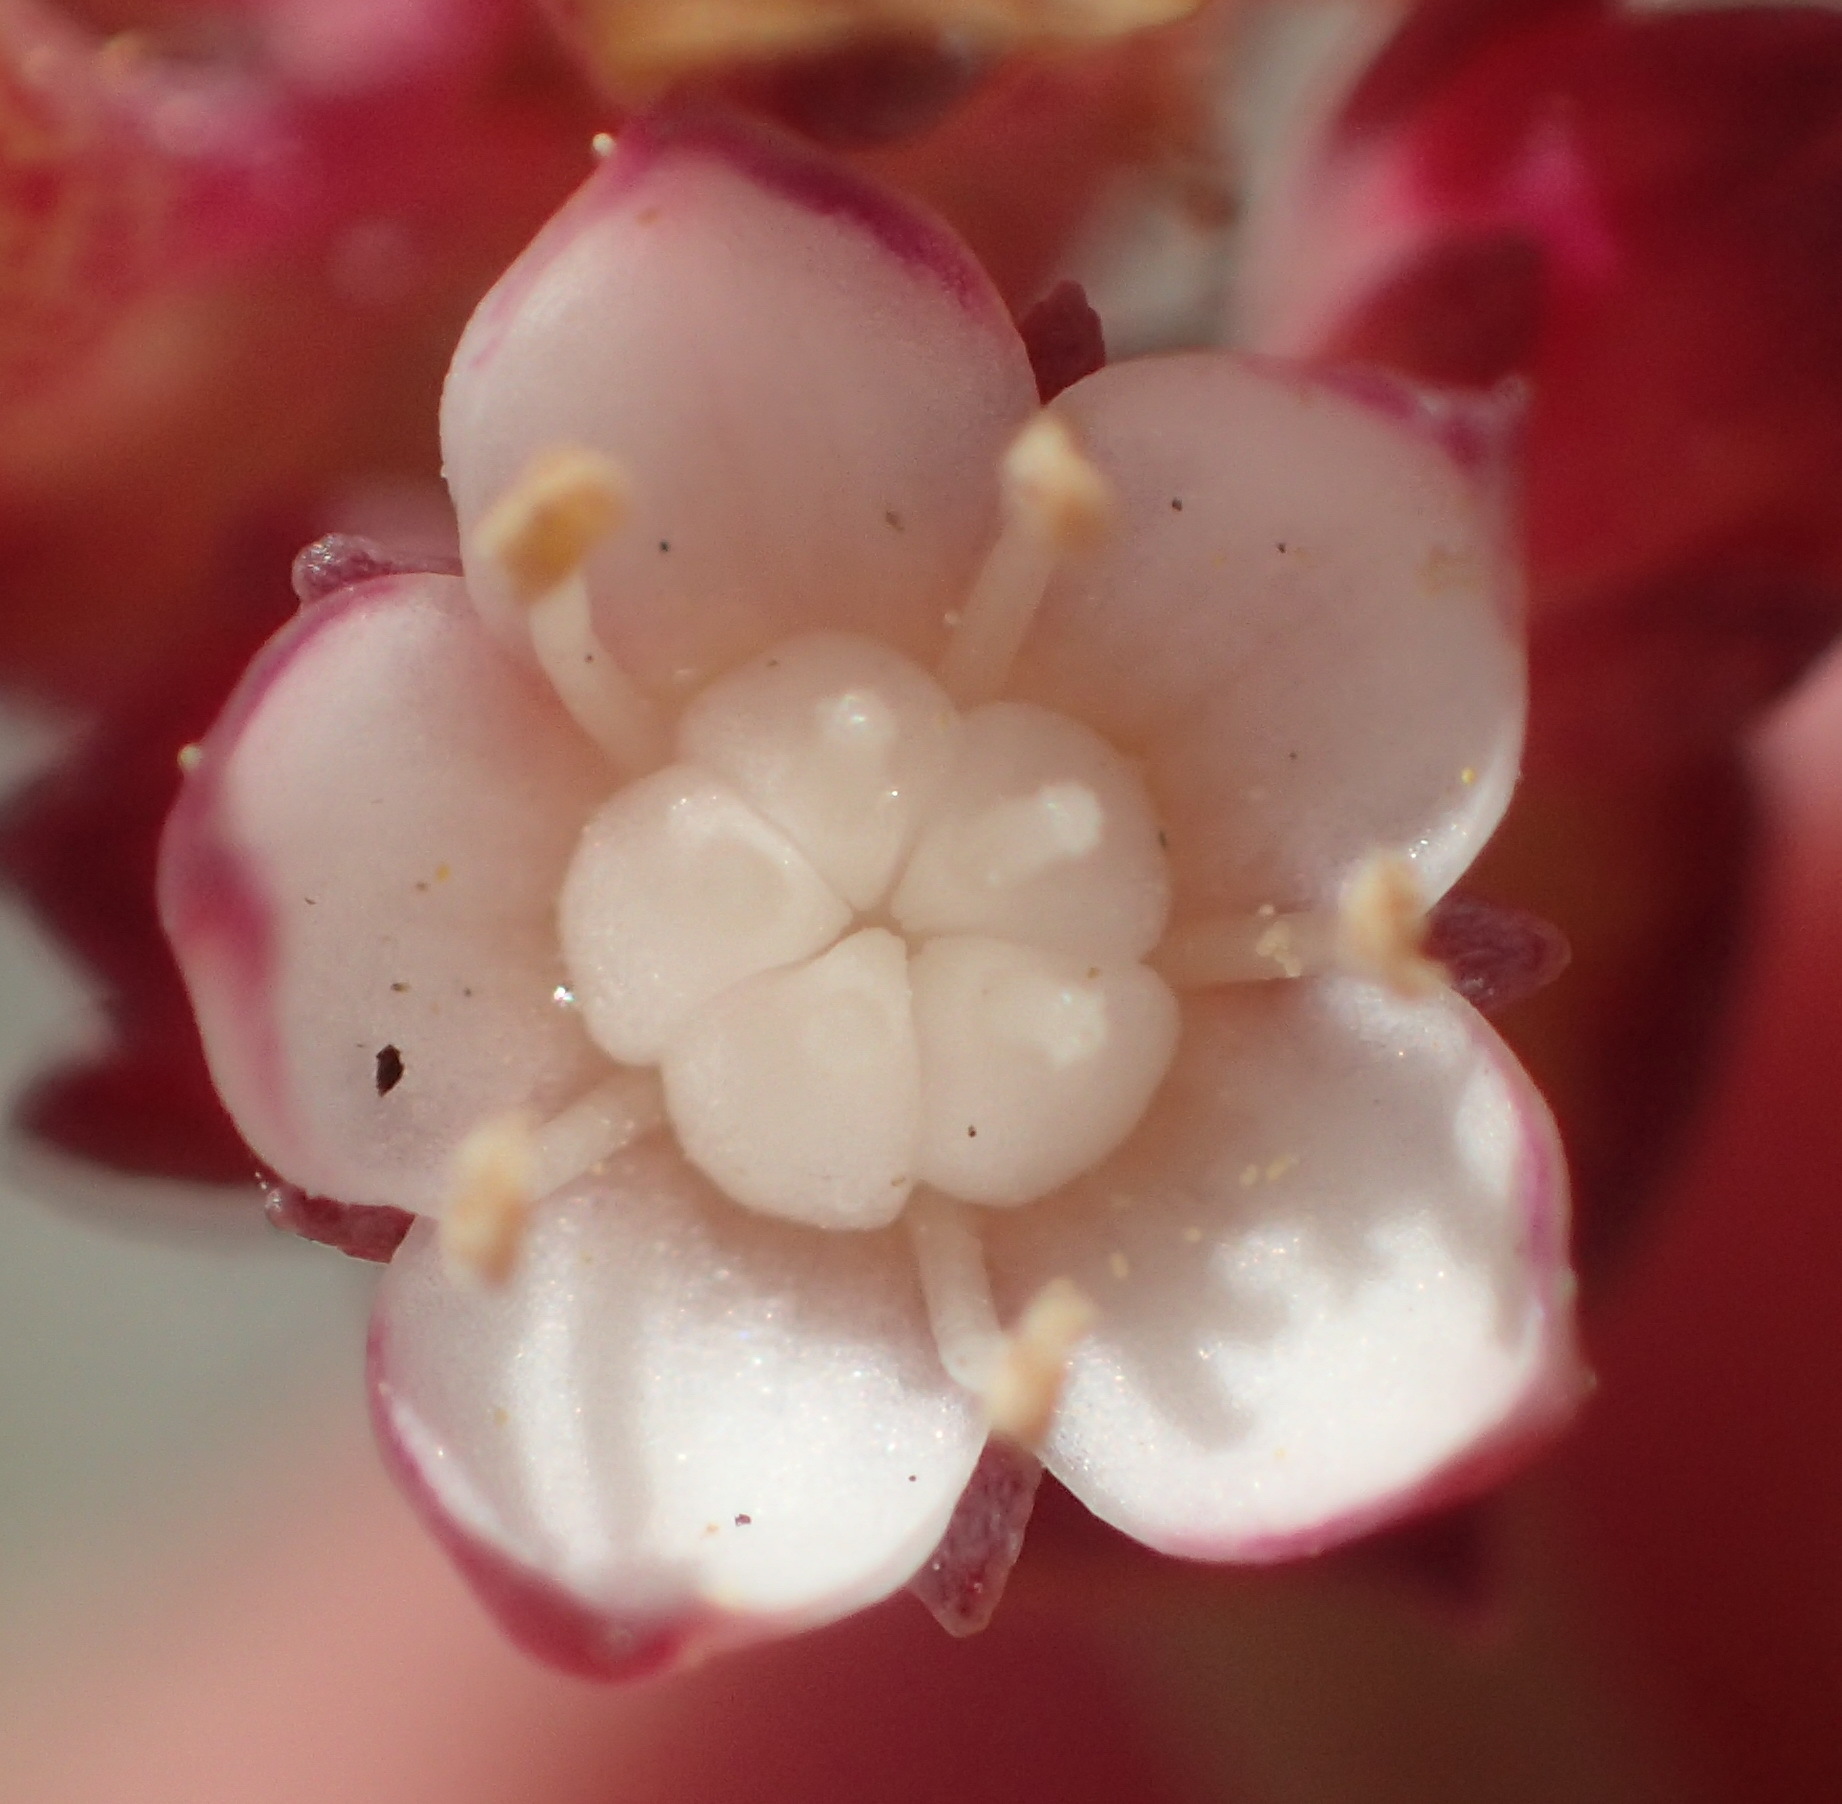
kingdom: Plantae
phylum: Tracheophyta
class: Magnoliopsida
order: Saxifragales
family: Crassulaceae
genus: Crassula
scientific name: Crassula pellucida
